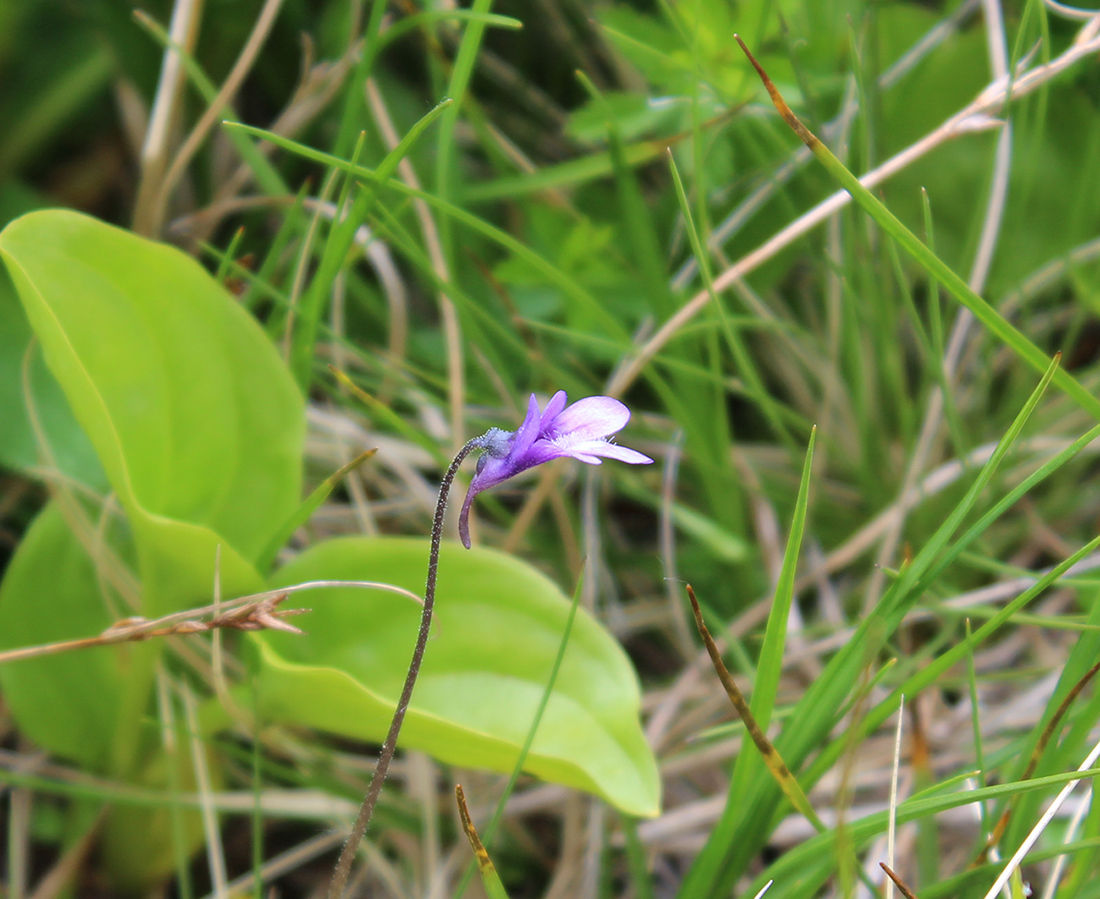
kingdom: Plantae
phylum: Tracheophyta
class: Magnoliopsida
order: Lamiales
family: Lentibulariaceae
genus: Pinguicula
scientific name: Pinguicula vulgaris
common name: Common butterwort
